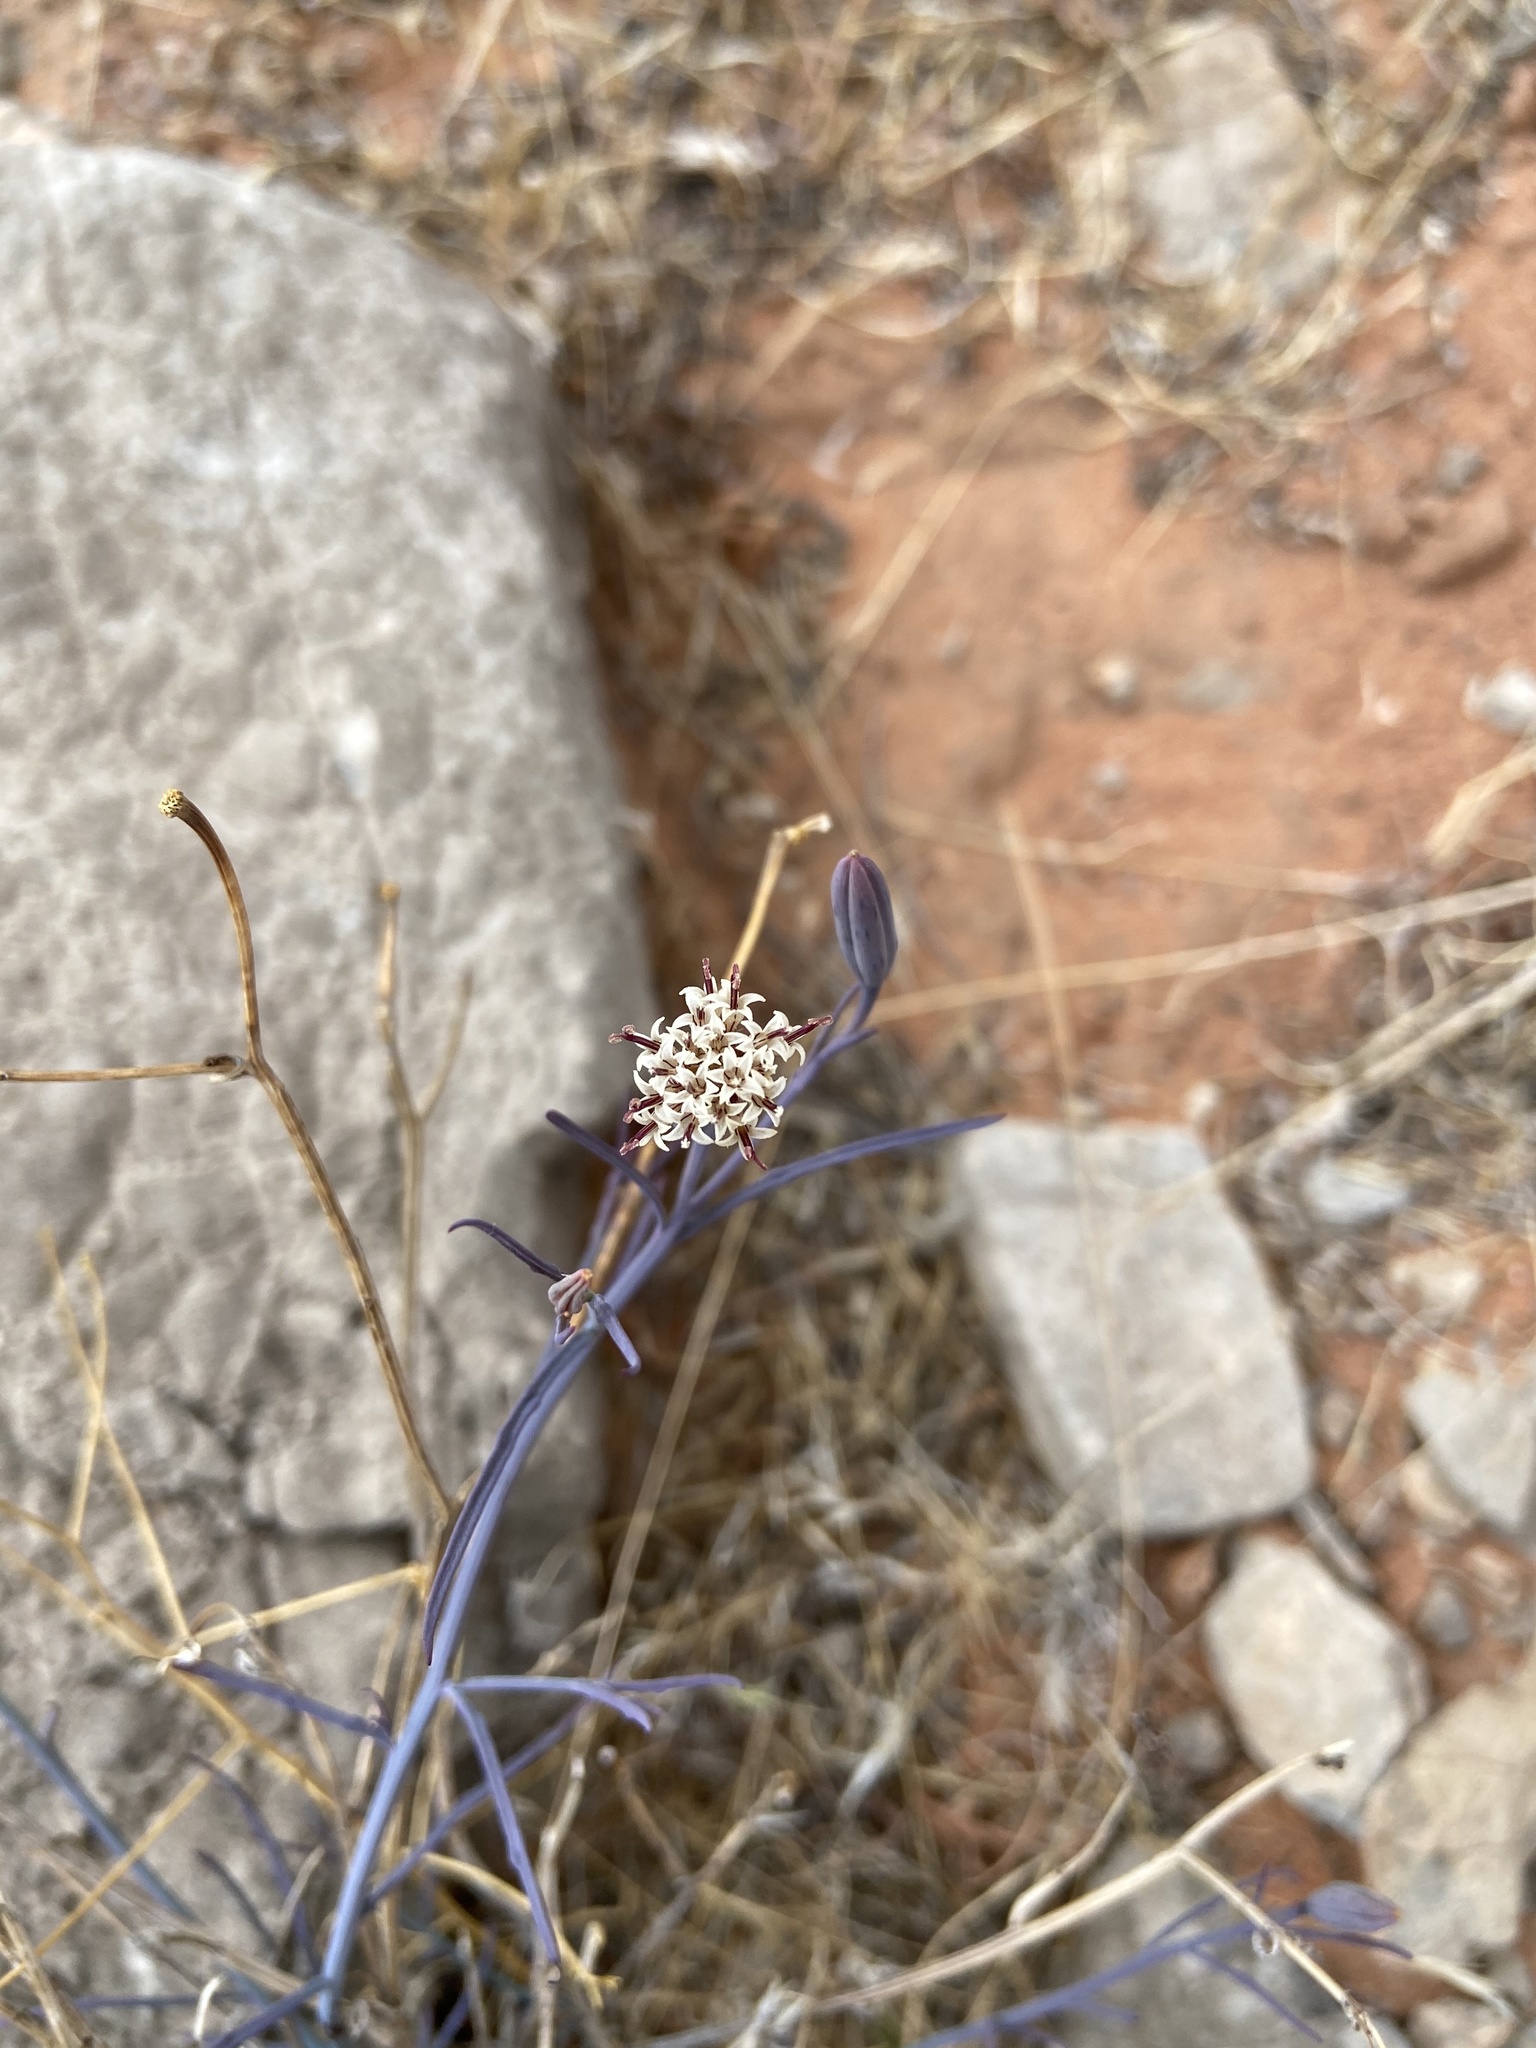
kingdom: Plantae
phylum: Tracheophyta
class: Magnoliopsida
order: Asterales
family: Asteraceae
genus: Porophyllum
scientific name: Porophyllum gracile
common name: Odora
